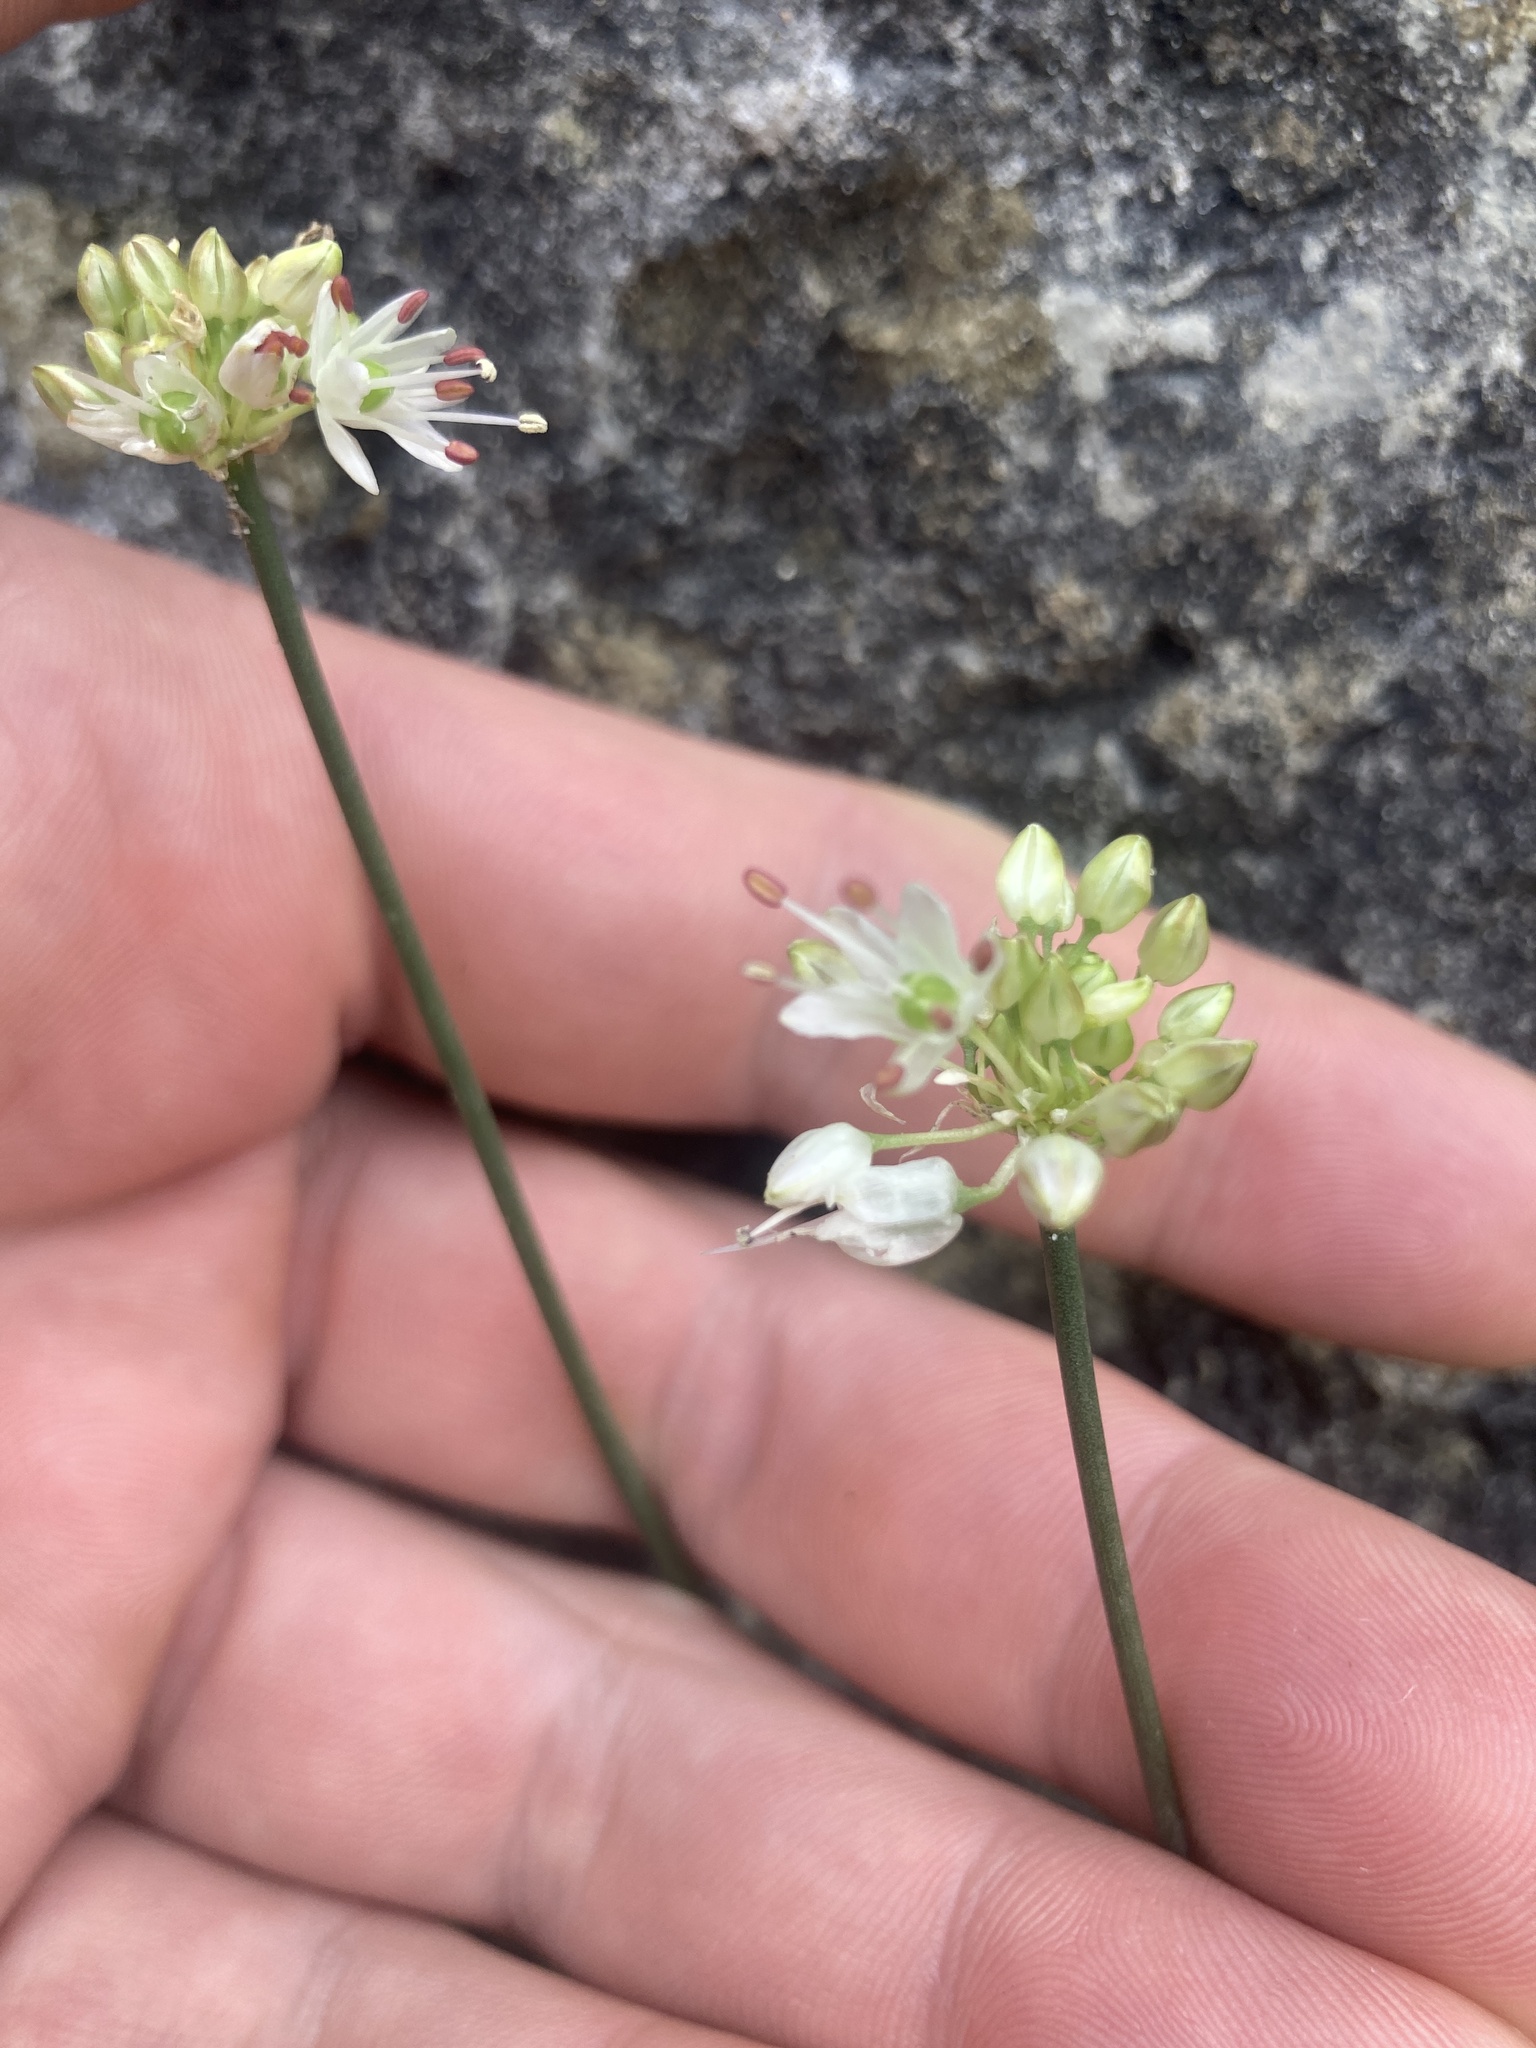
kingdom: Plantae
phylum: Tracheophyta
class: Liliopsida
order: Asparagales
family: Amaryllidaceae
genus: Allium
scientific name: Allium ericetorum
